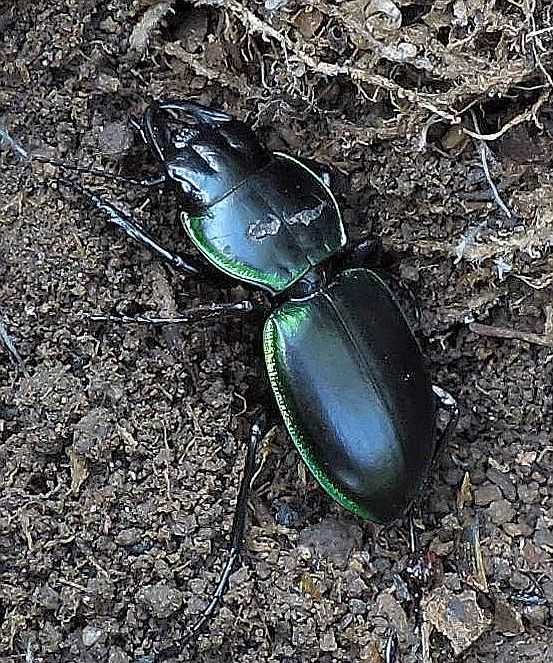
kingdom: Animalia
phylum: Arthropoda
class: Insecta
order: Coleoptera
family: Carabidae
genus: Pasimachus
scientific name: Pasimachus viridans
